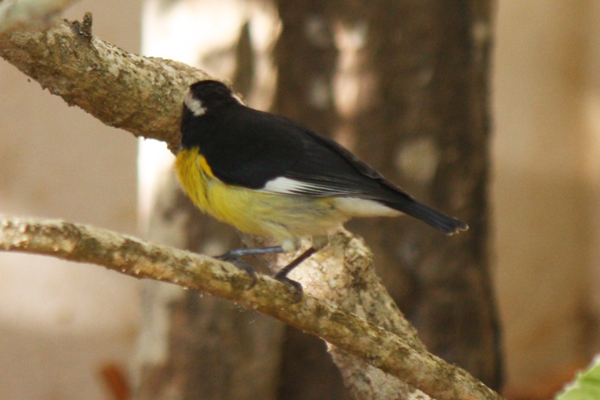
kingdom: Animalia
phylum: Chordata
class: Aves
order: Passeriformes
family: Thraupidae
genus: Coereba
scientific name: Coereba flaveola
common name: Bananaquit
